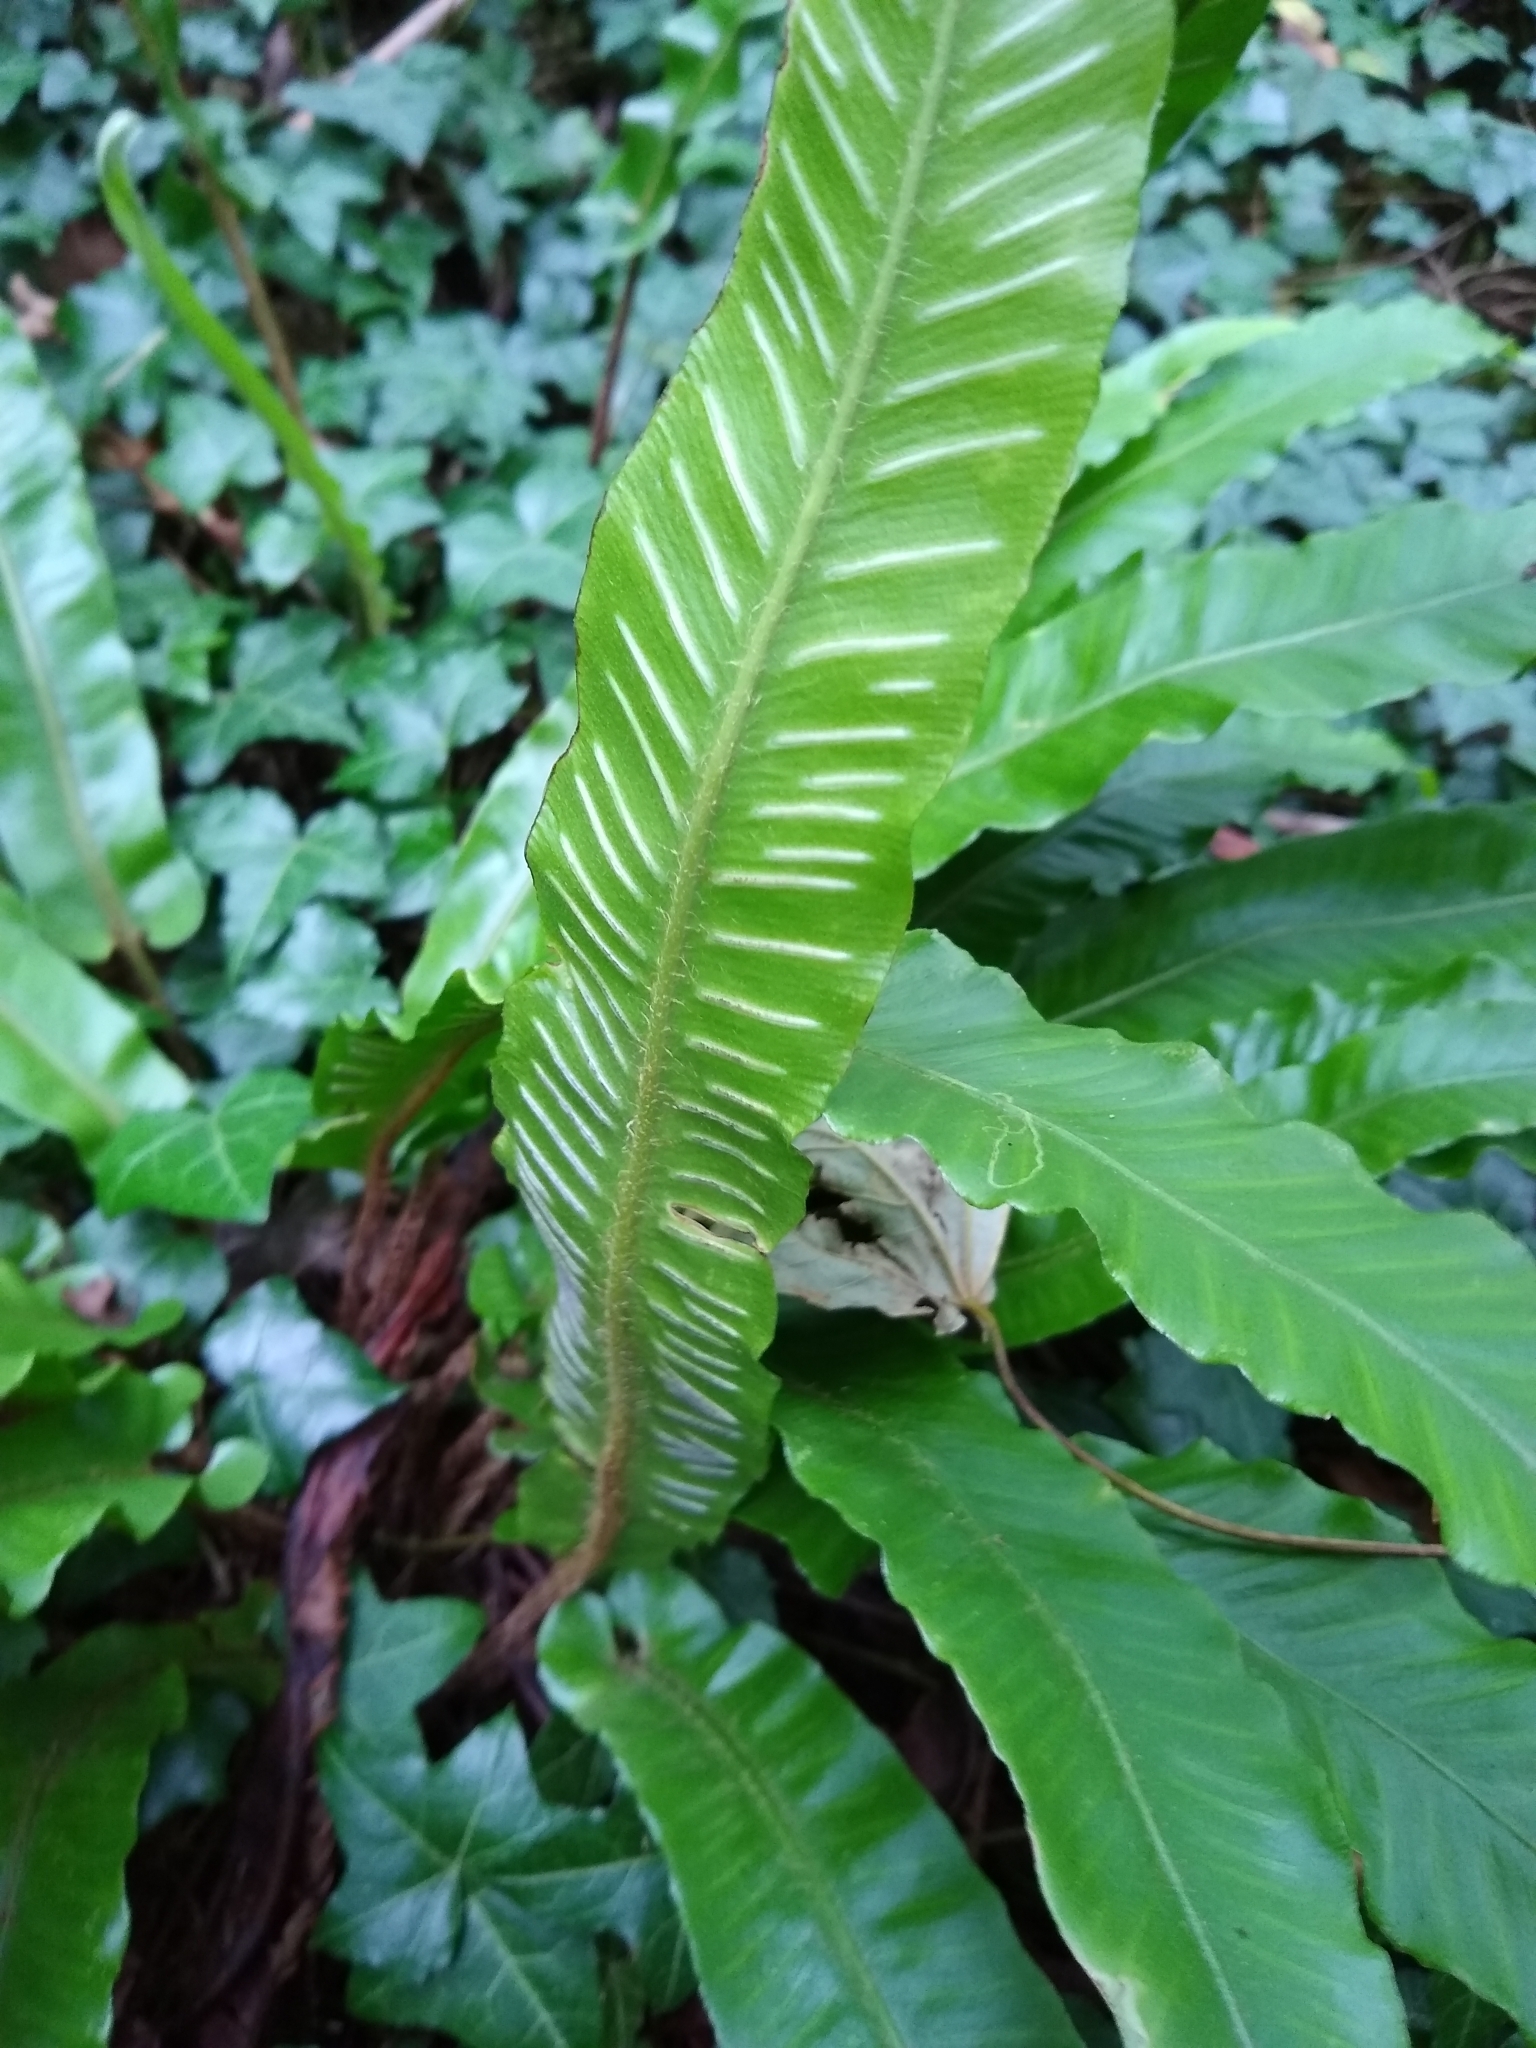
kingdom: Plantae
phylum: Tracheophyta
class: Polypodiopsida
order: Polypodiales
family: Aspleniaceae
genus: Asplenium
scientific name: Asplenium scolopendrium
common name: Hart's-tongue fern
